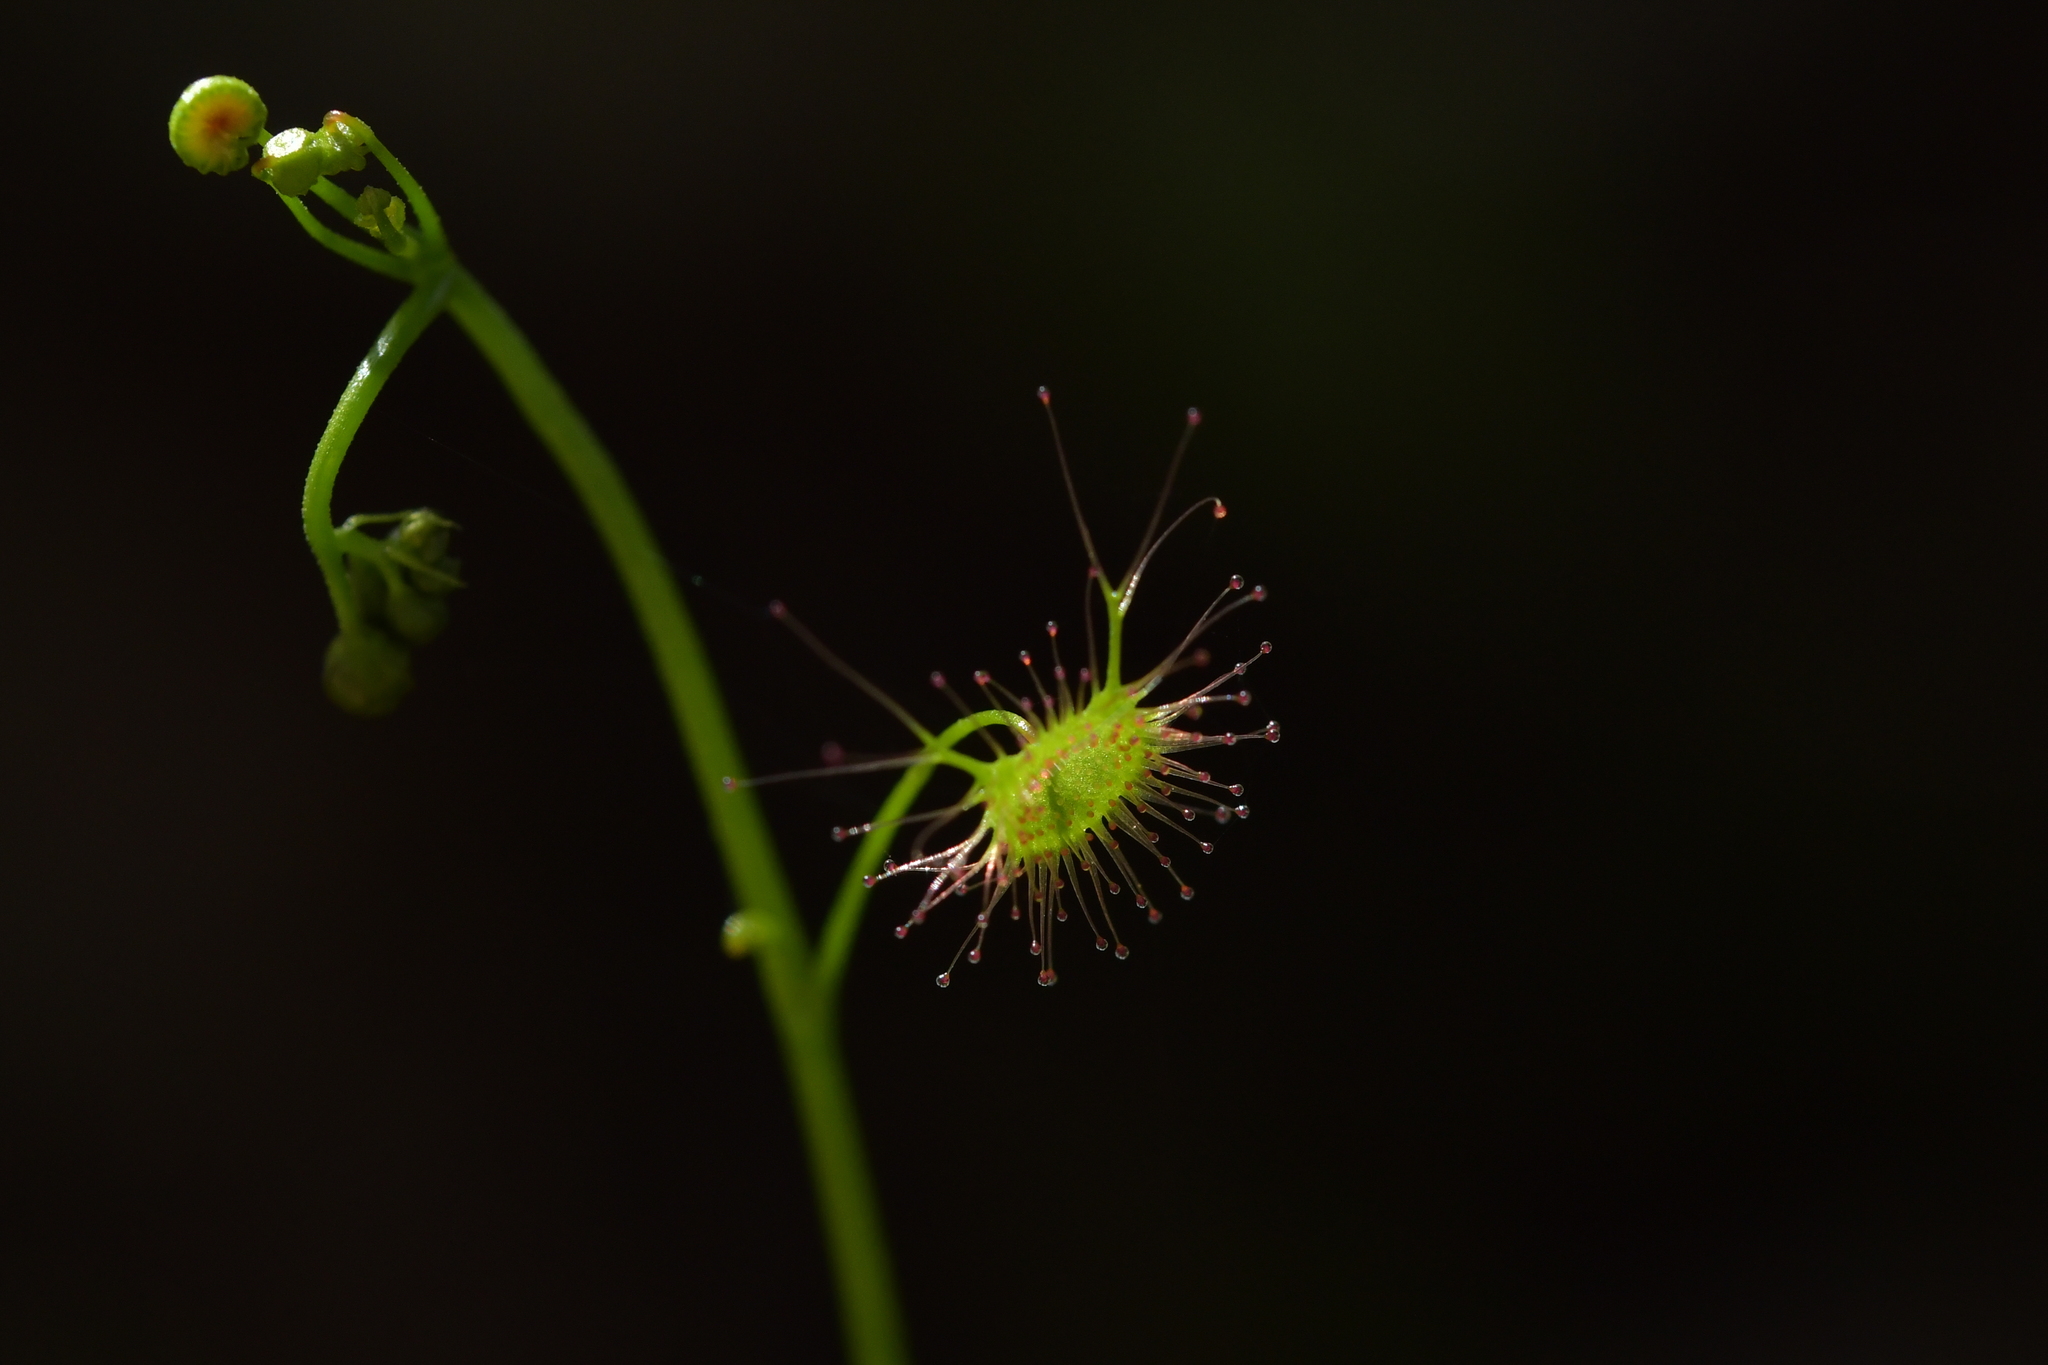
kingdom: Plantae
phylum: Tracheophyta
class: Magnoliopsida
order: Caryophyllales
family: Droseraceae
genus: Drosera
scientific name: Drosera peltata
